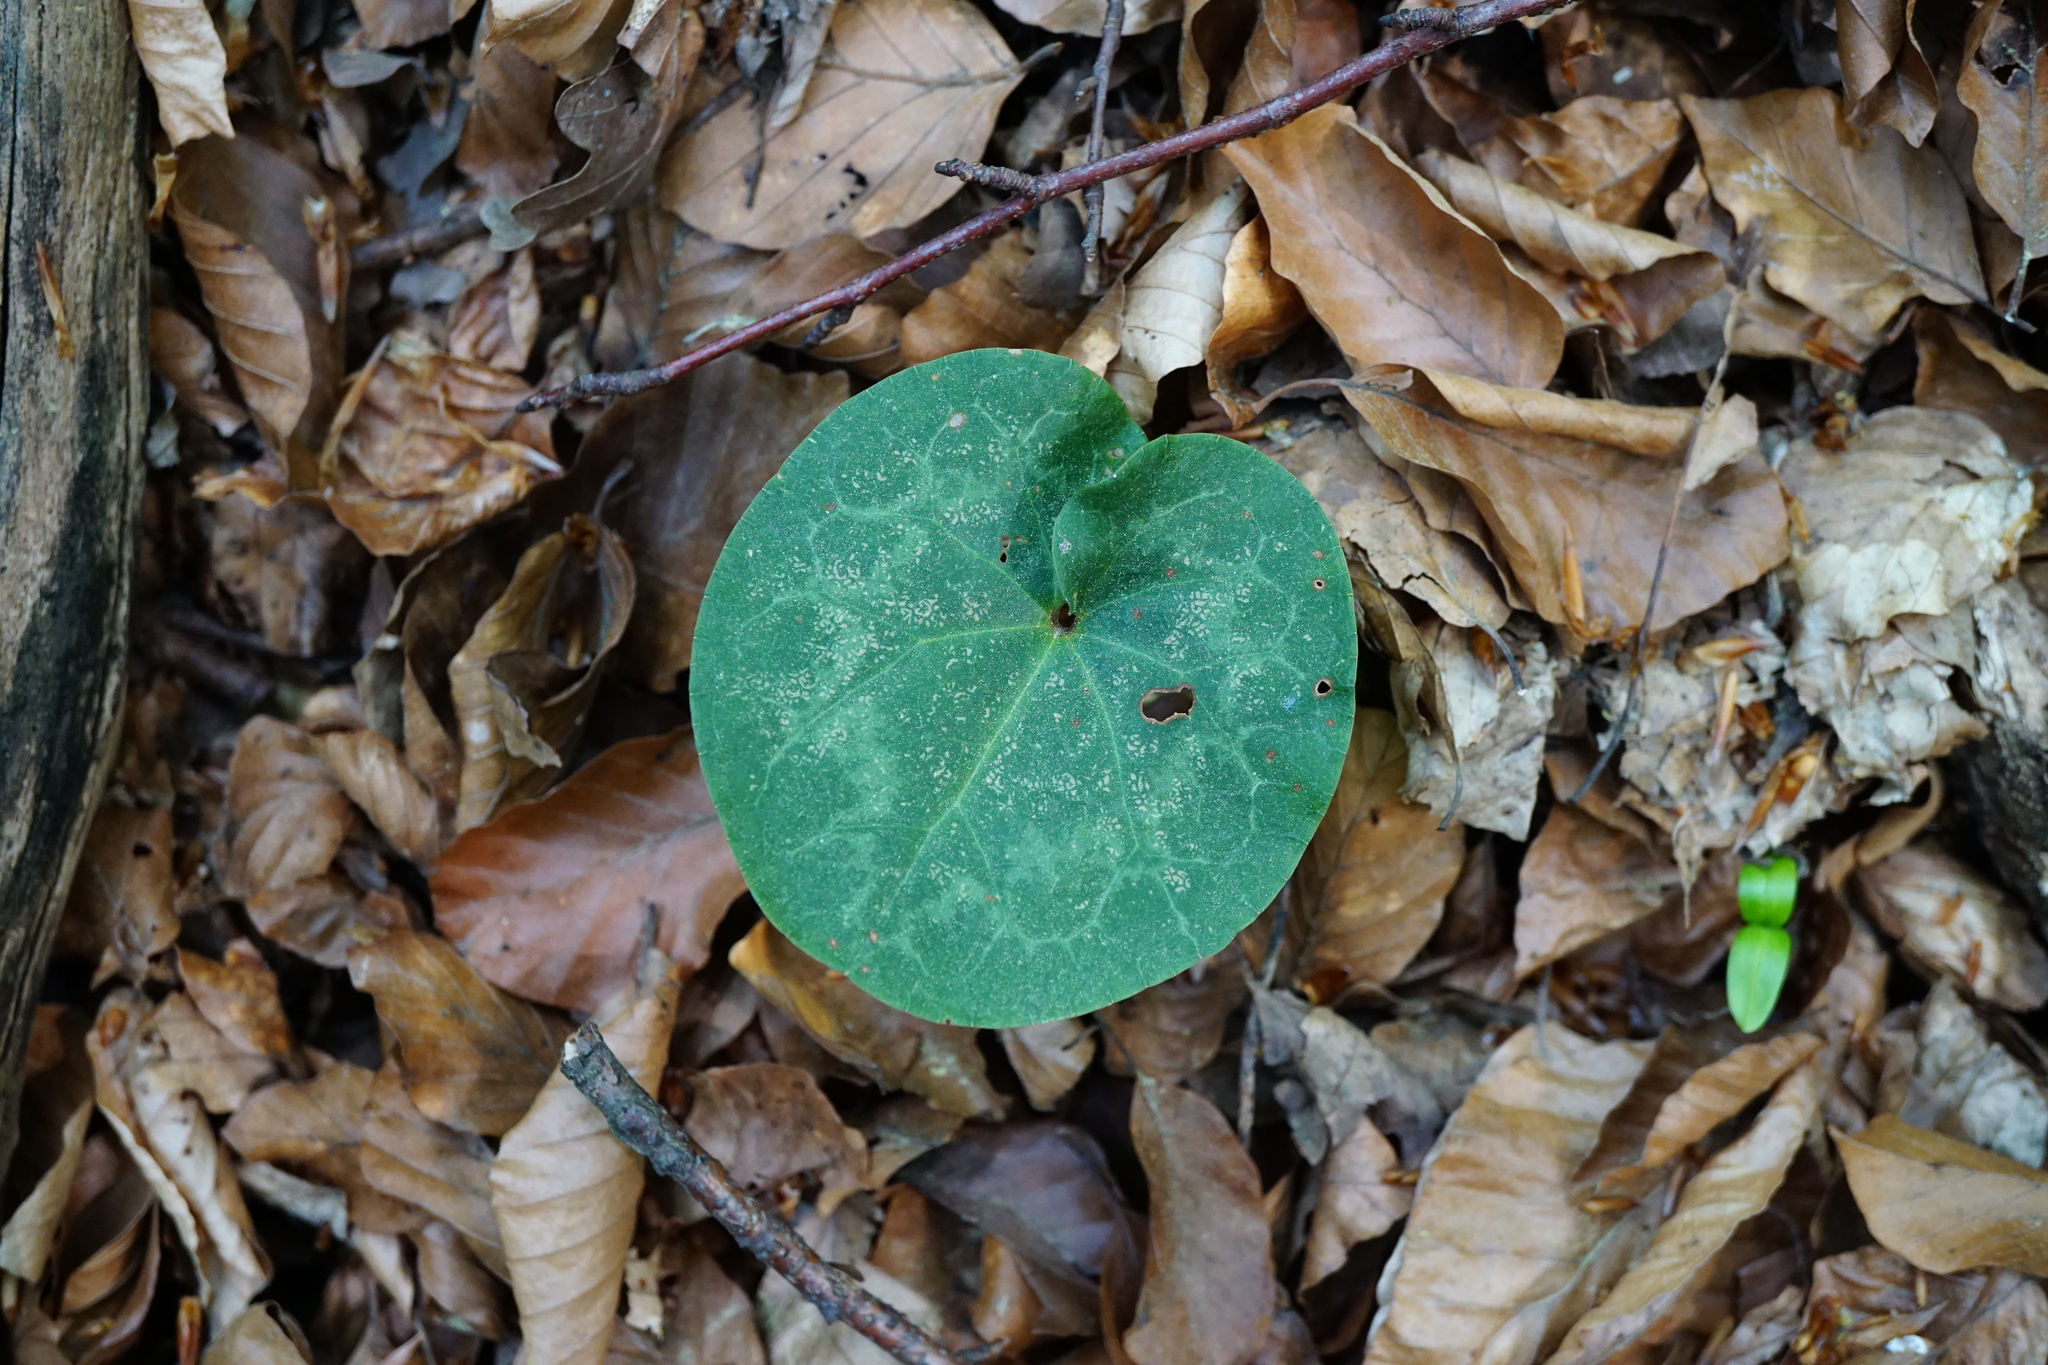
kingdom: Plantae
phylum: Tracheophyta
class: Magnoliopsida
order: Ericales
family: Primulaceae
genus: Cyclamen
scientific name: Cyclamen purpurascens
